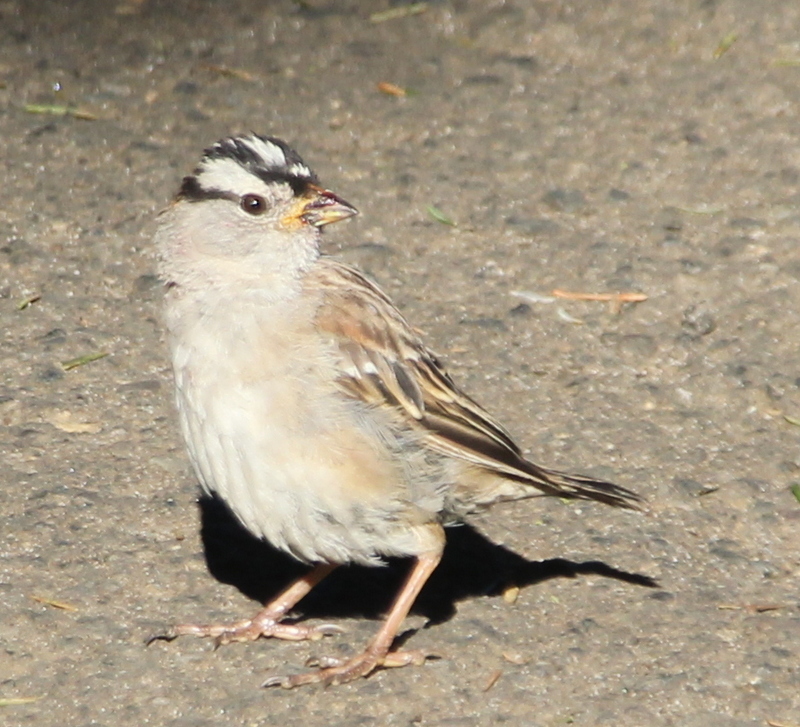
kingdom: Animalia
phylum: Chordata
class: Aves
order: Passeriformes
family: Passerellidae
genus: Zonotrichia
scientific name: Zonotrichia leucophrys
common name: White-crowned sparrow
